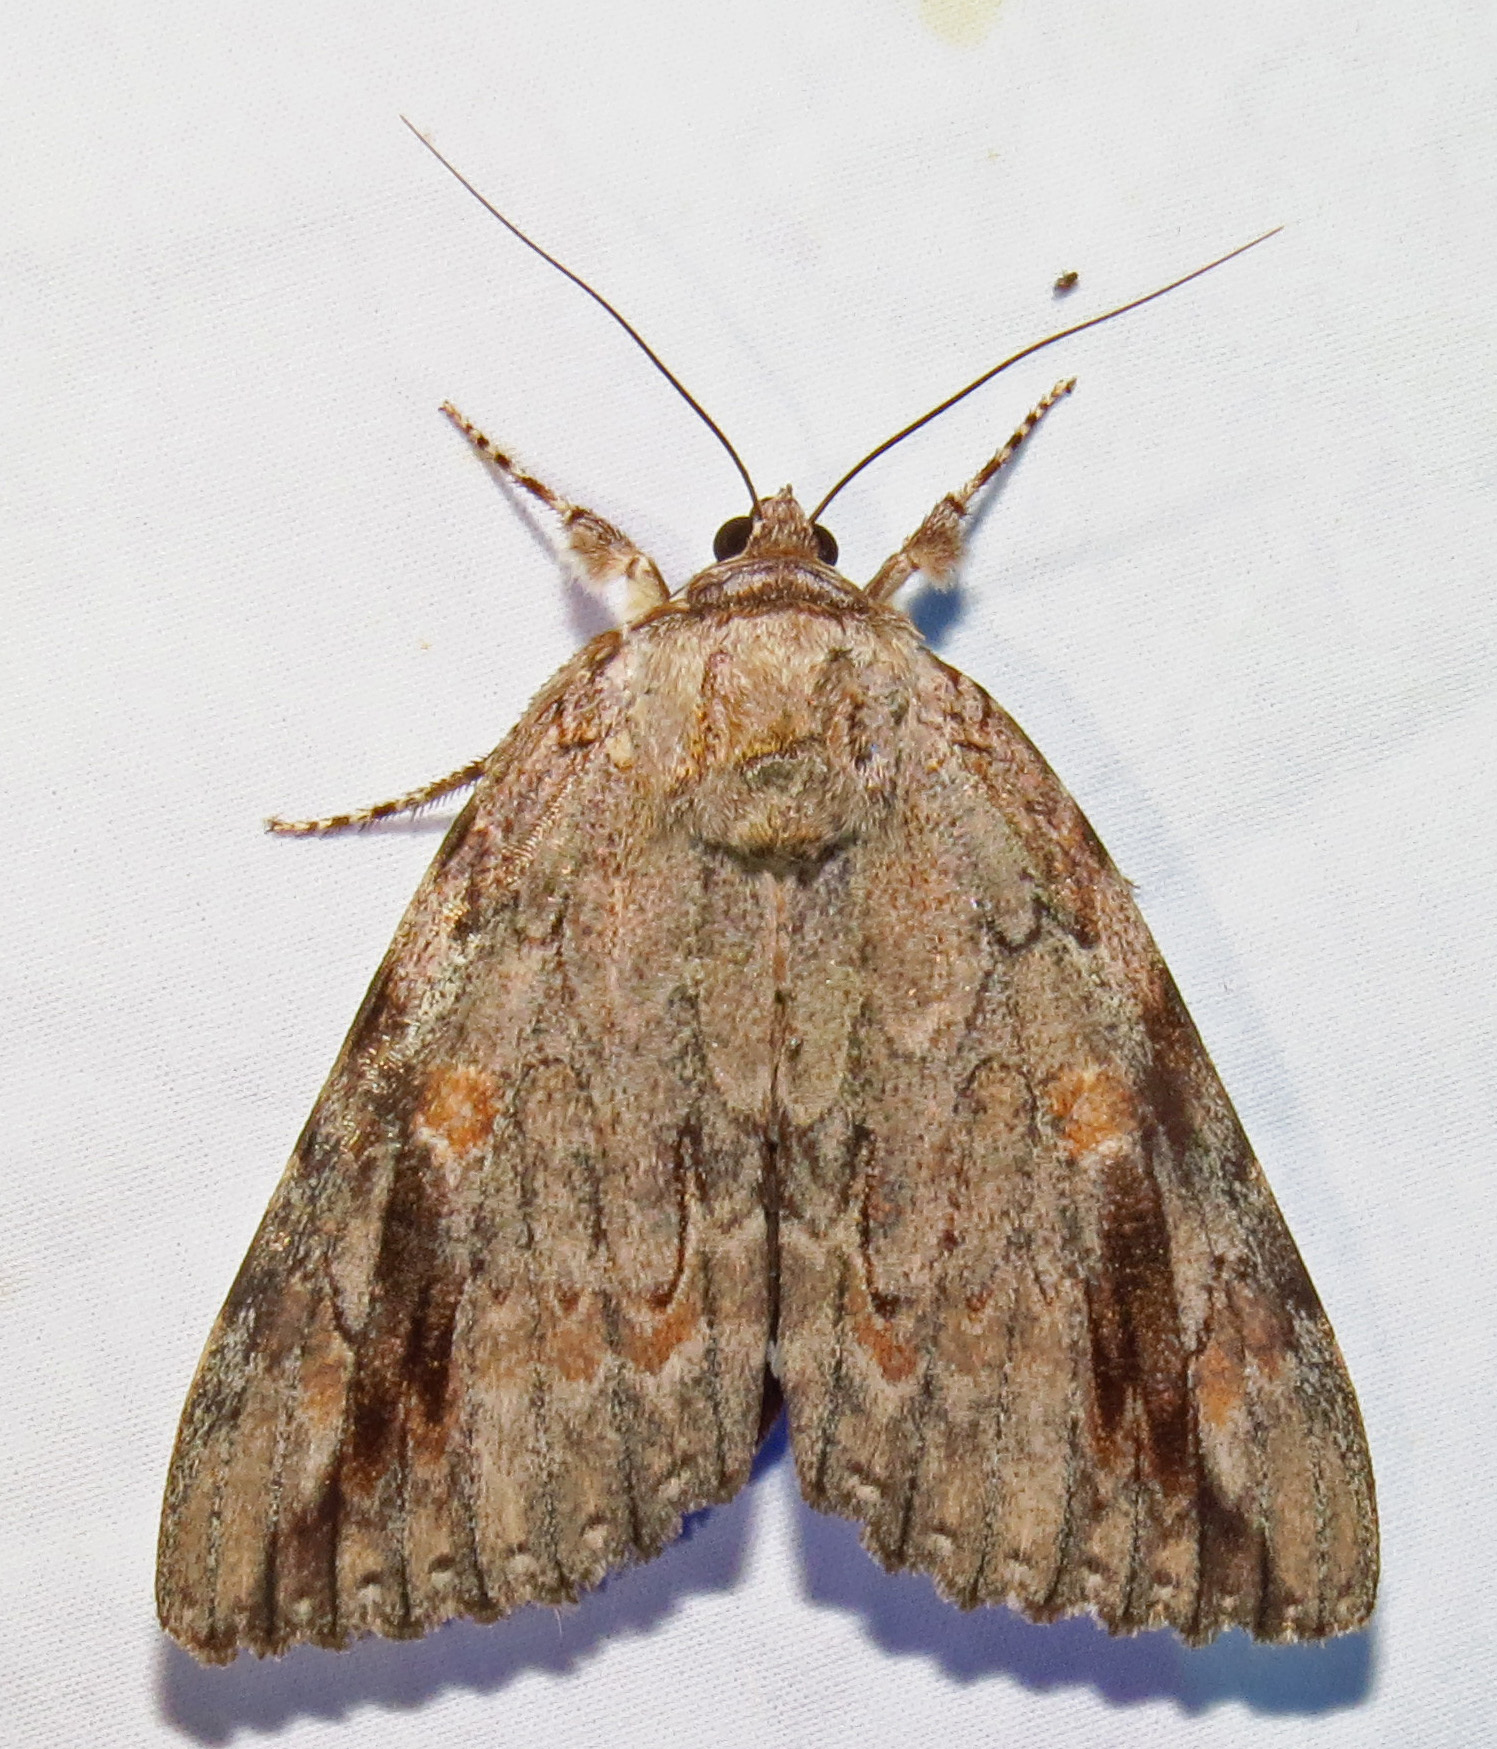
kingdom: Animalia
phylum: Arthropoda
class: Insecta
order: Lepidoptera
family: Erebidae
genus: Catocala
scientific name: Catocala maestosa
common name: Sad underwing
